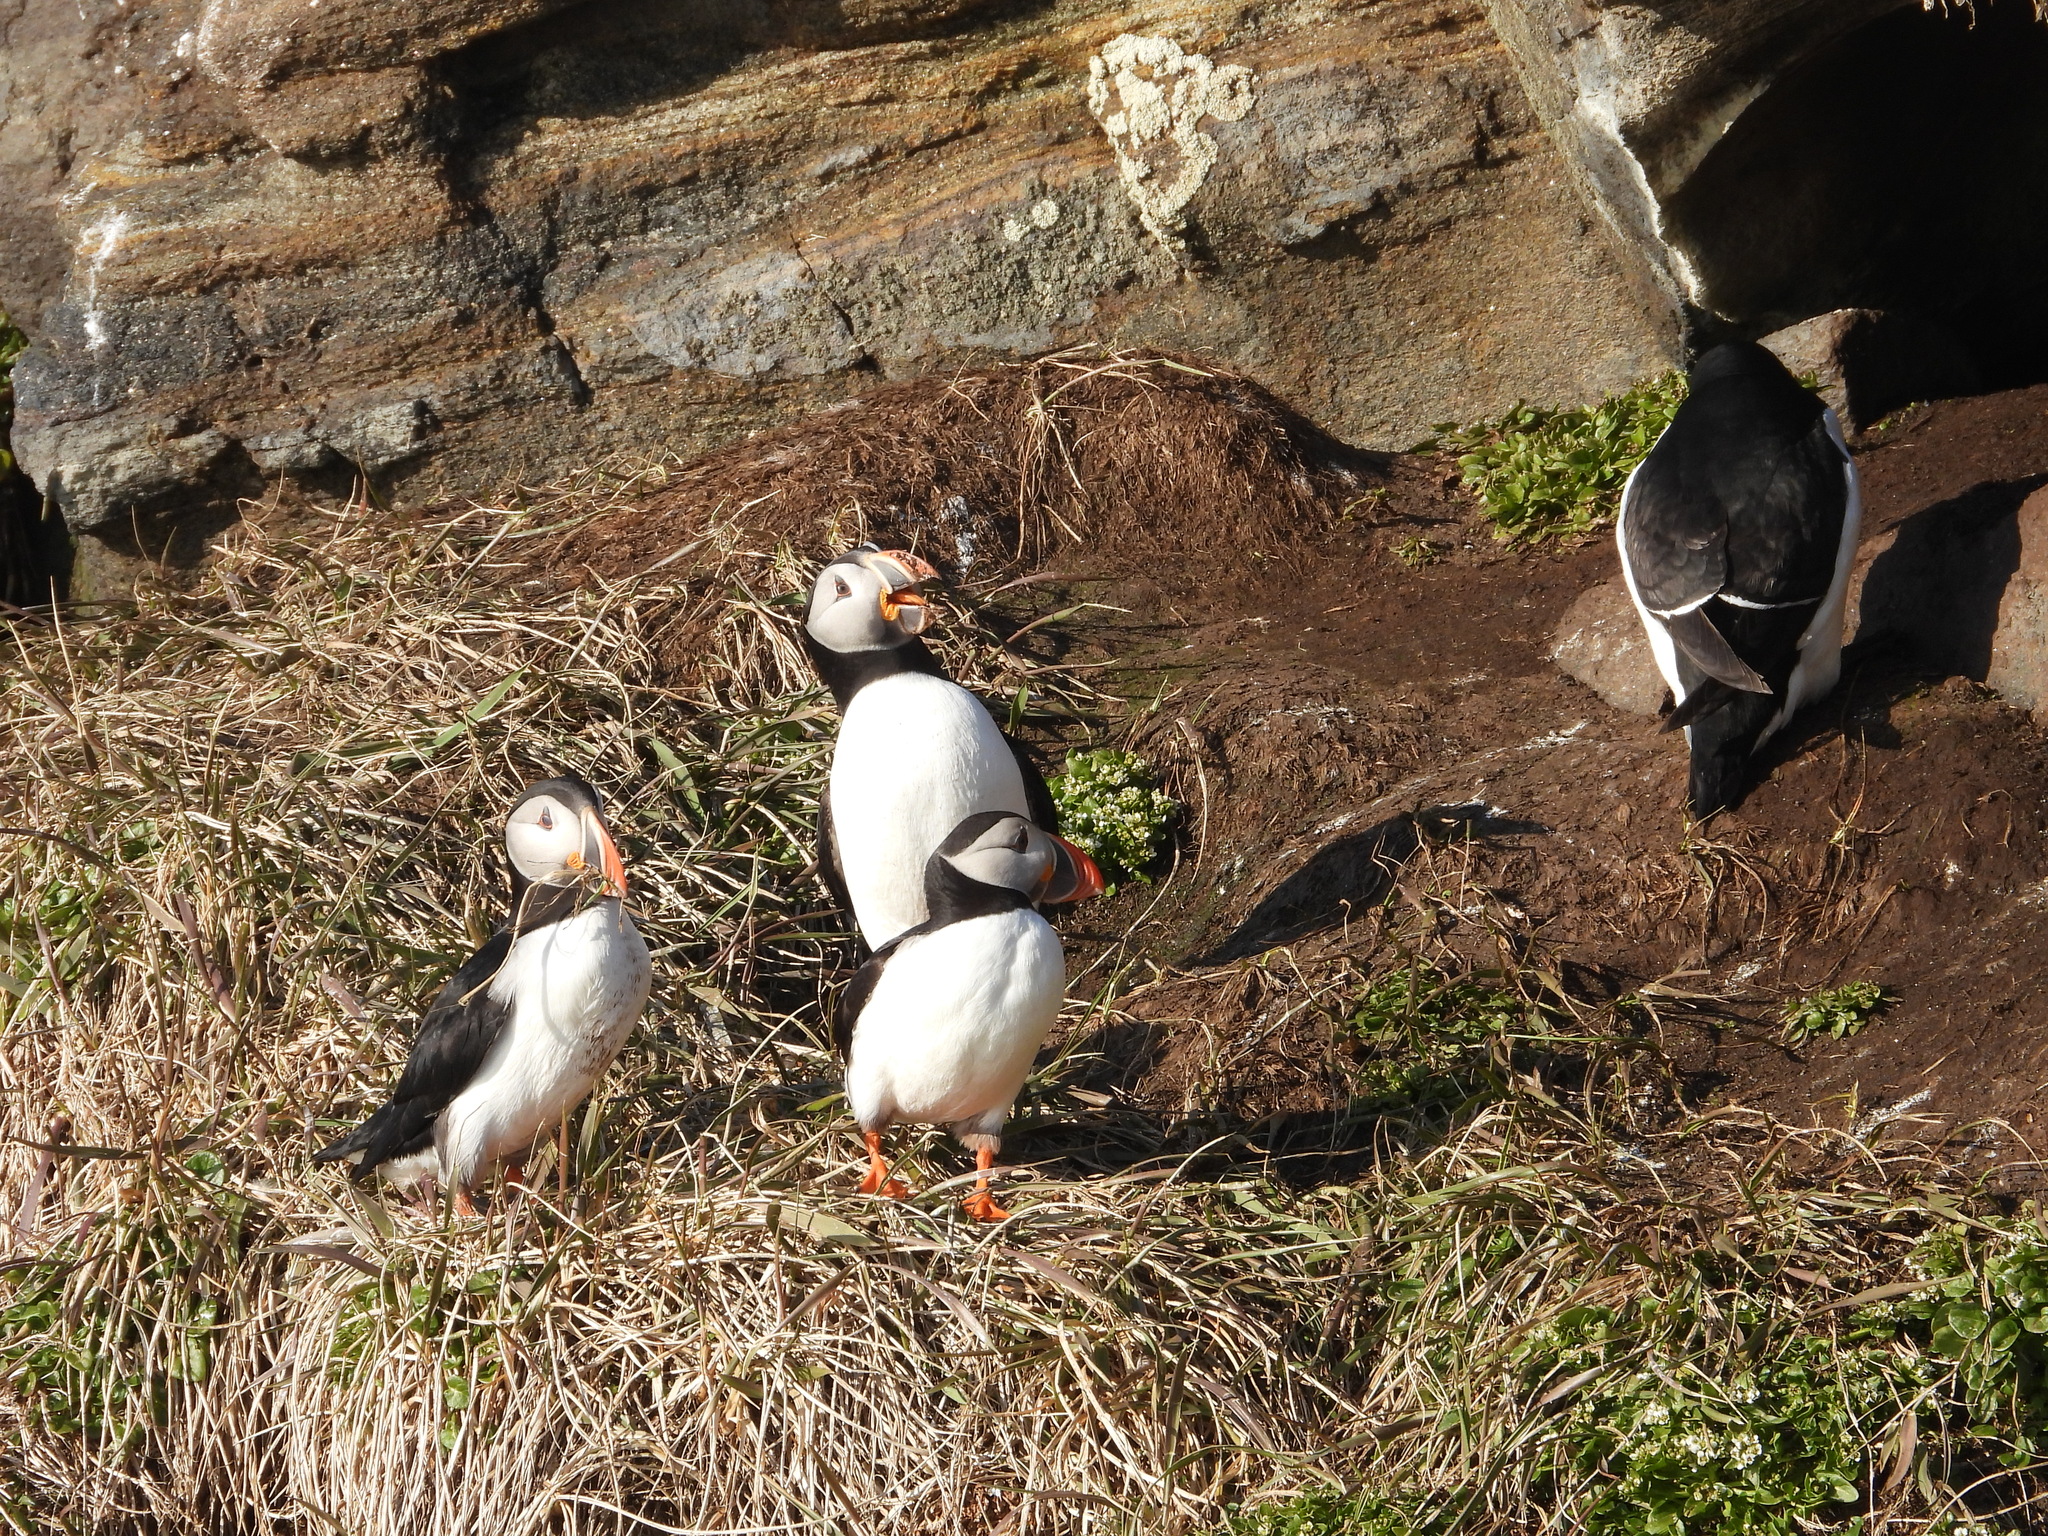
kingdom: Animalia
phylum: Chordata
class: Aves
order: Charadriiformes
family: Alcidae
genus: Fratercula
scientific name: Fratercula arctica
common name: Atlantic puffin
